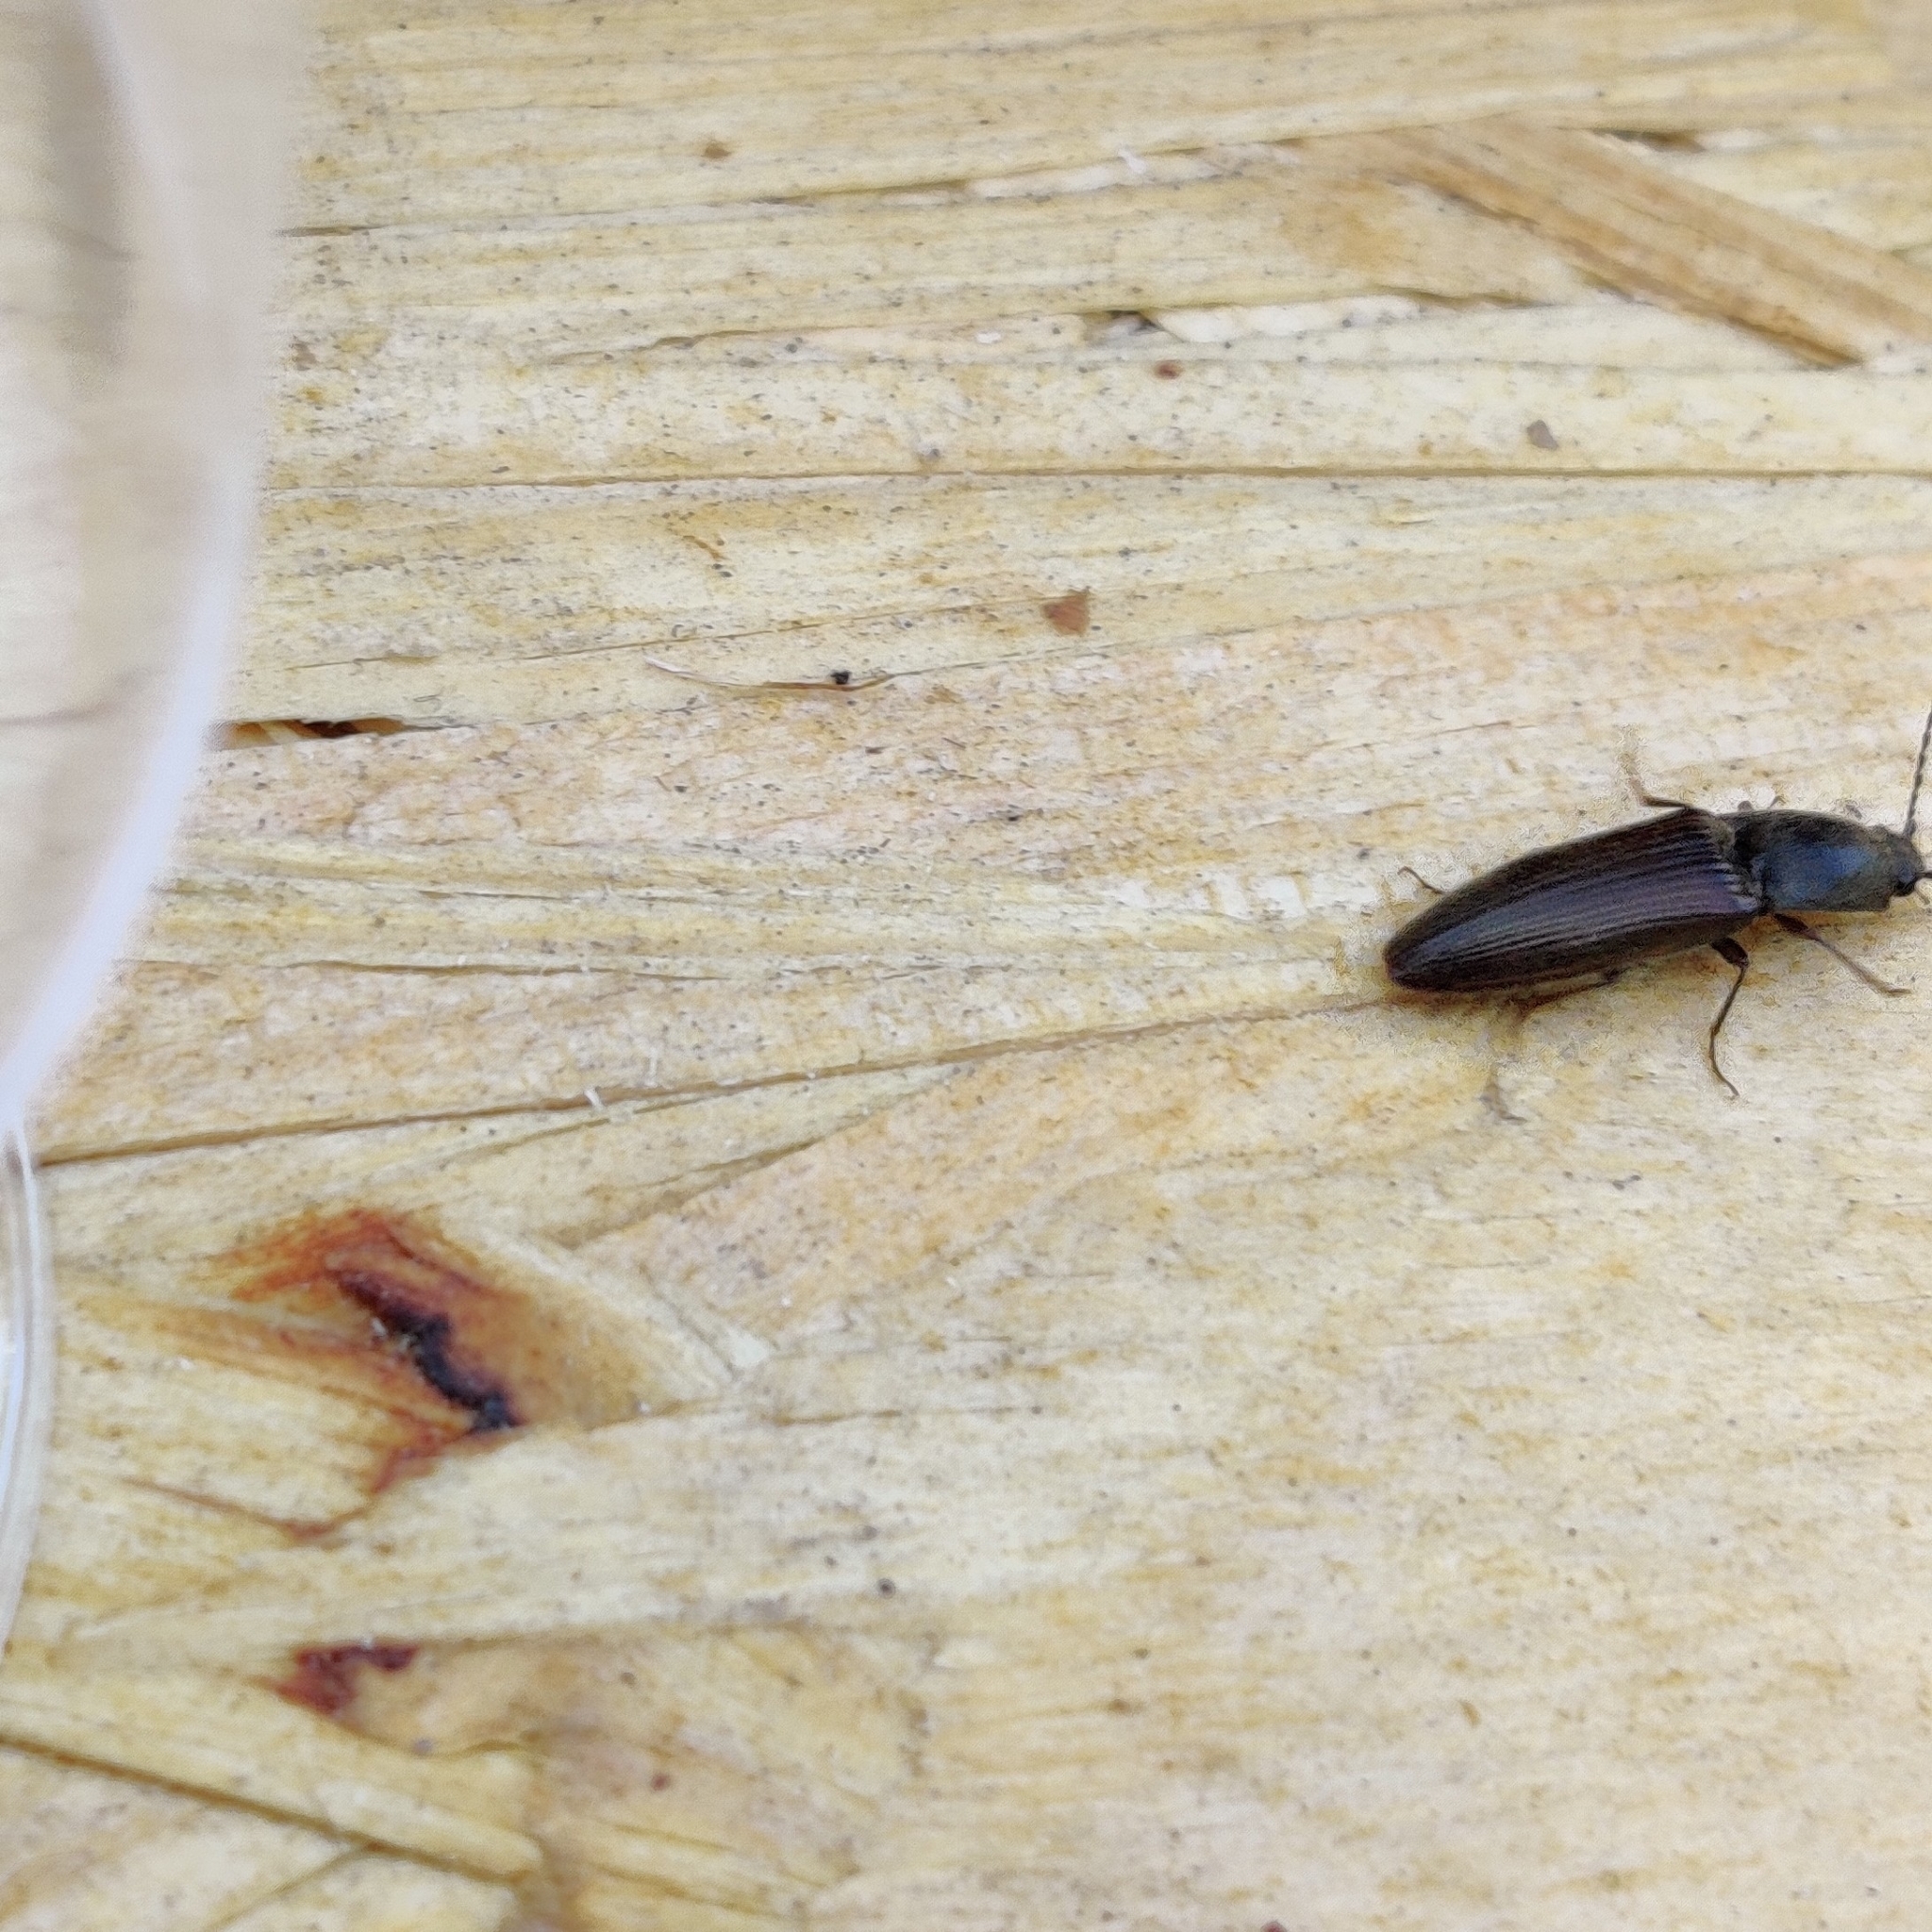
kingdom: Animalia
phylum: Arthropoda
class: Insecta
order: Coleoptera
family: Elateridae
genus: Athous
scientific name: Athous haemorrhoidalis
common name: Red-brown click beetle
